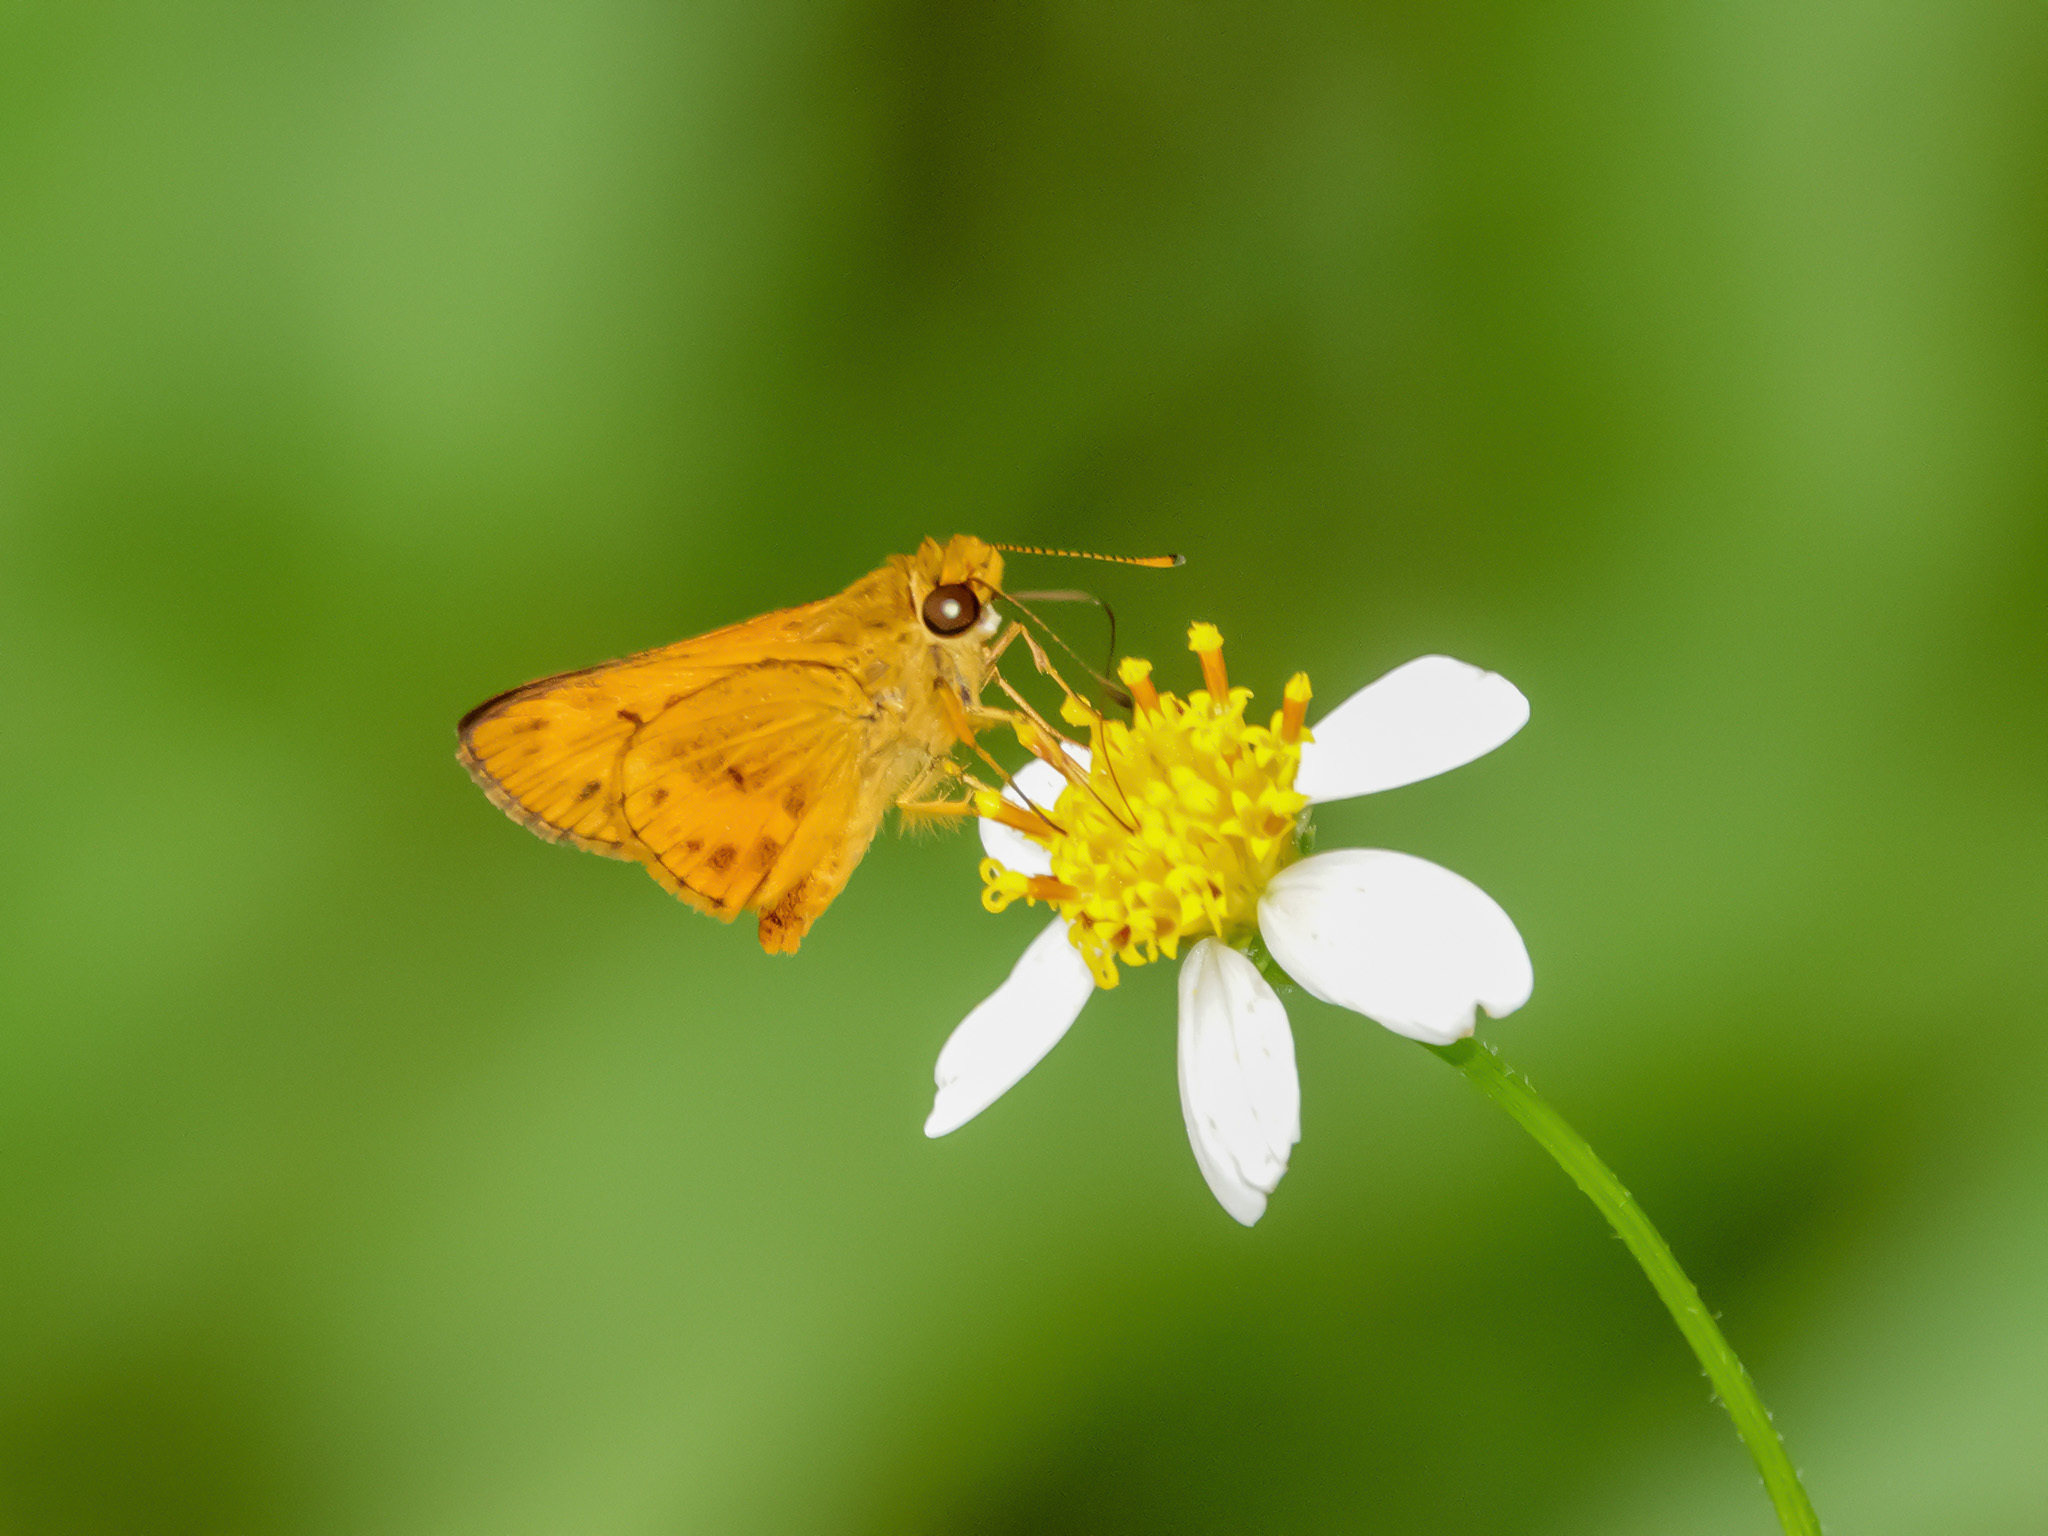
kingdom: Animalia
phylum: Arthropoda
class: Insecta
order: Lepidoptera
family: Hesperiidae
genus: Oriens
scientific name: Oriens gola
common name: Common dartlet
